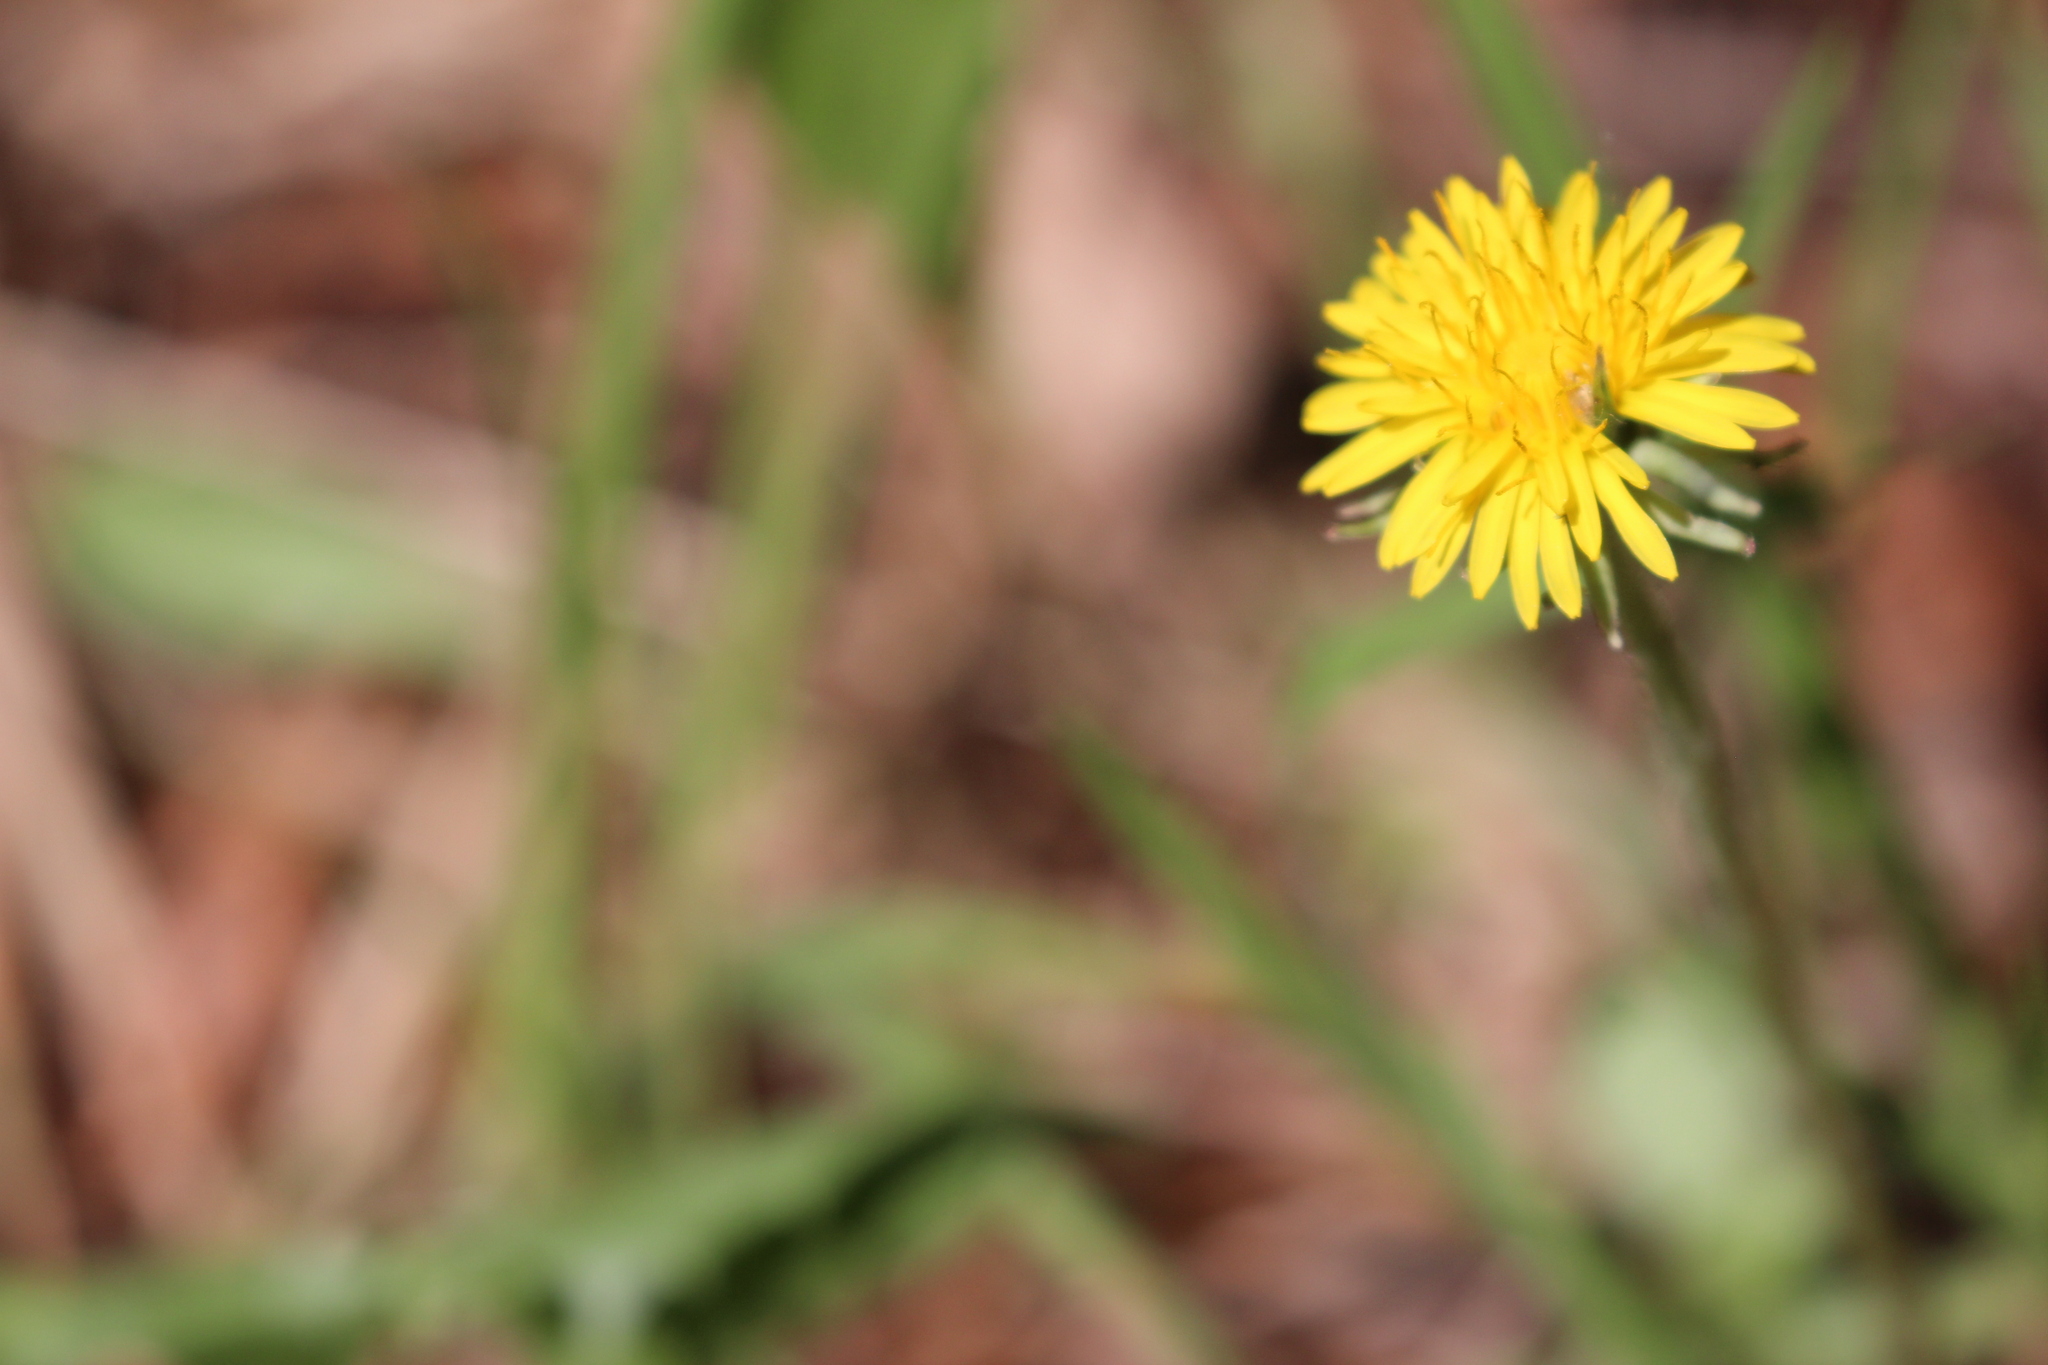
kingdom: Plantae
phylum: Tracheophyta
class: Magnoliopsida
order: Asterales
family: Asteraceae
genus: Taraxacum
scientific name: Taraxacum officinale
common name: Common dandelion
